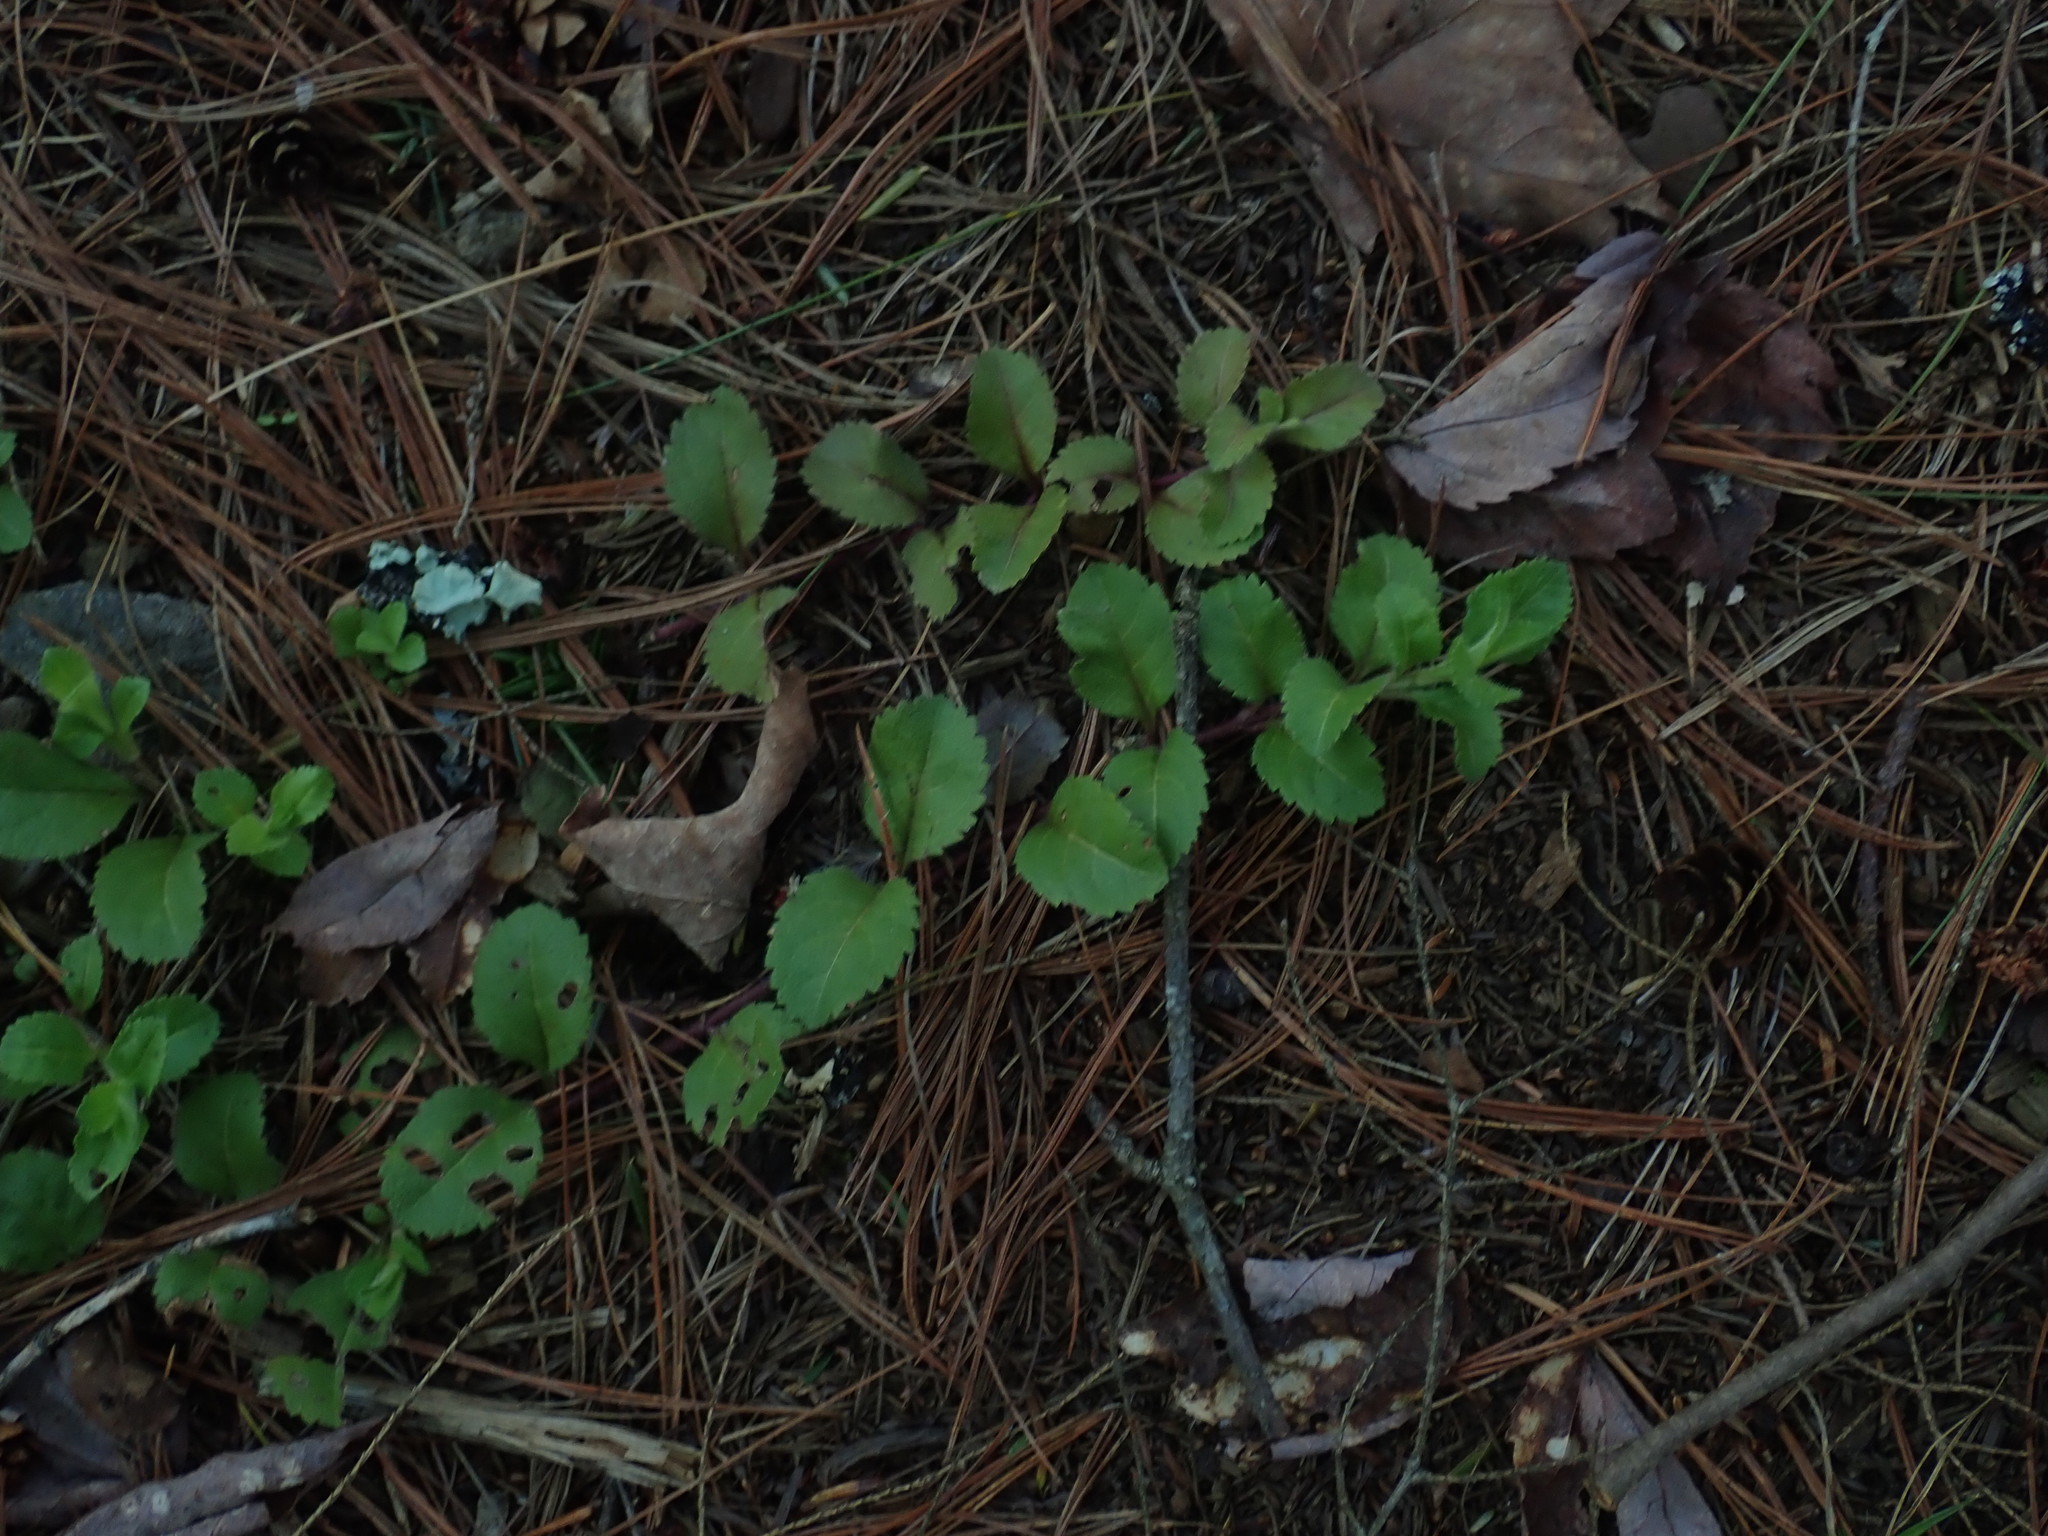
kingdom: Plantae
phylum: Tracheophyta
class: Magnoliopsida
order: Lamiales
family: Plantaginaceae
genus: Veronica
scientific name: Veronica officinalis
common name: Common speedwell
